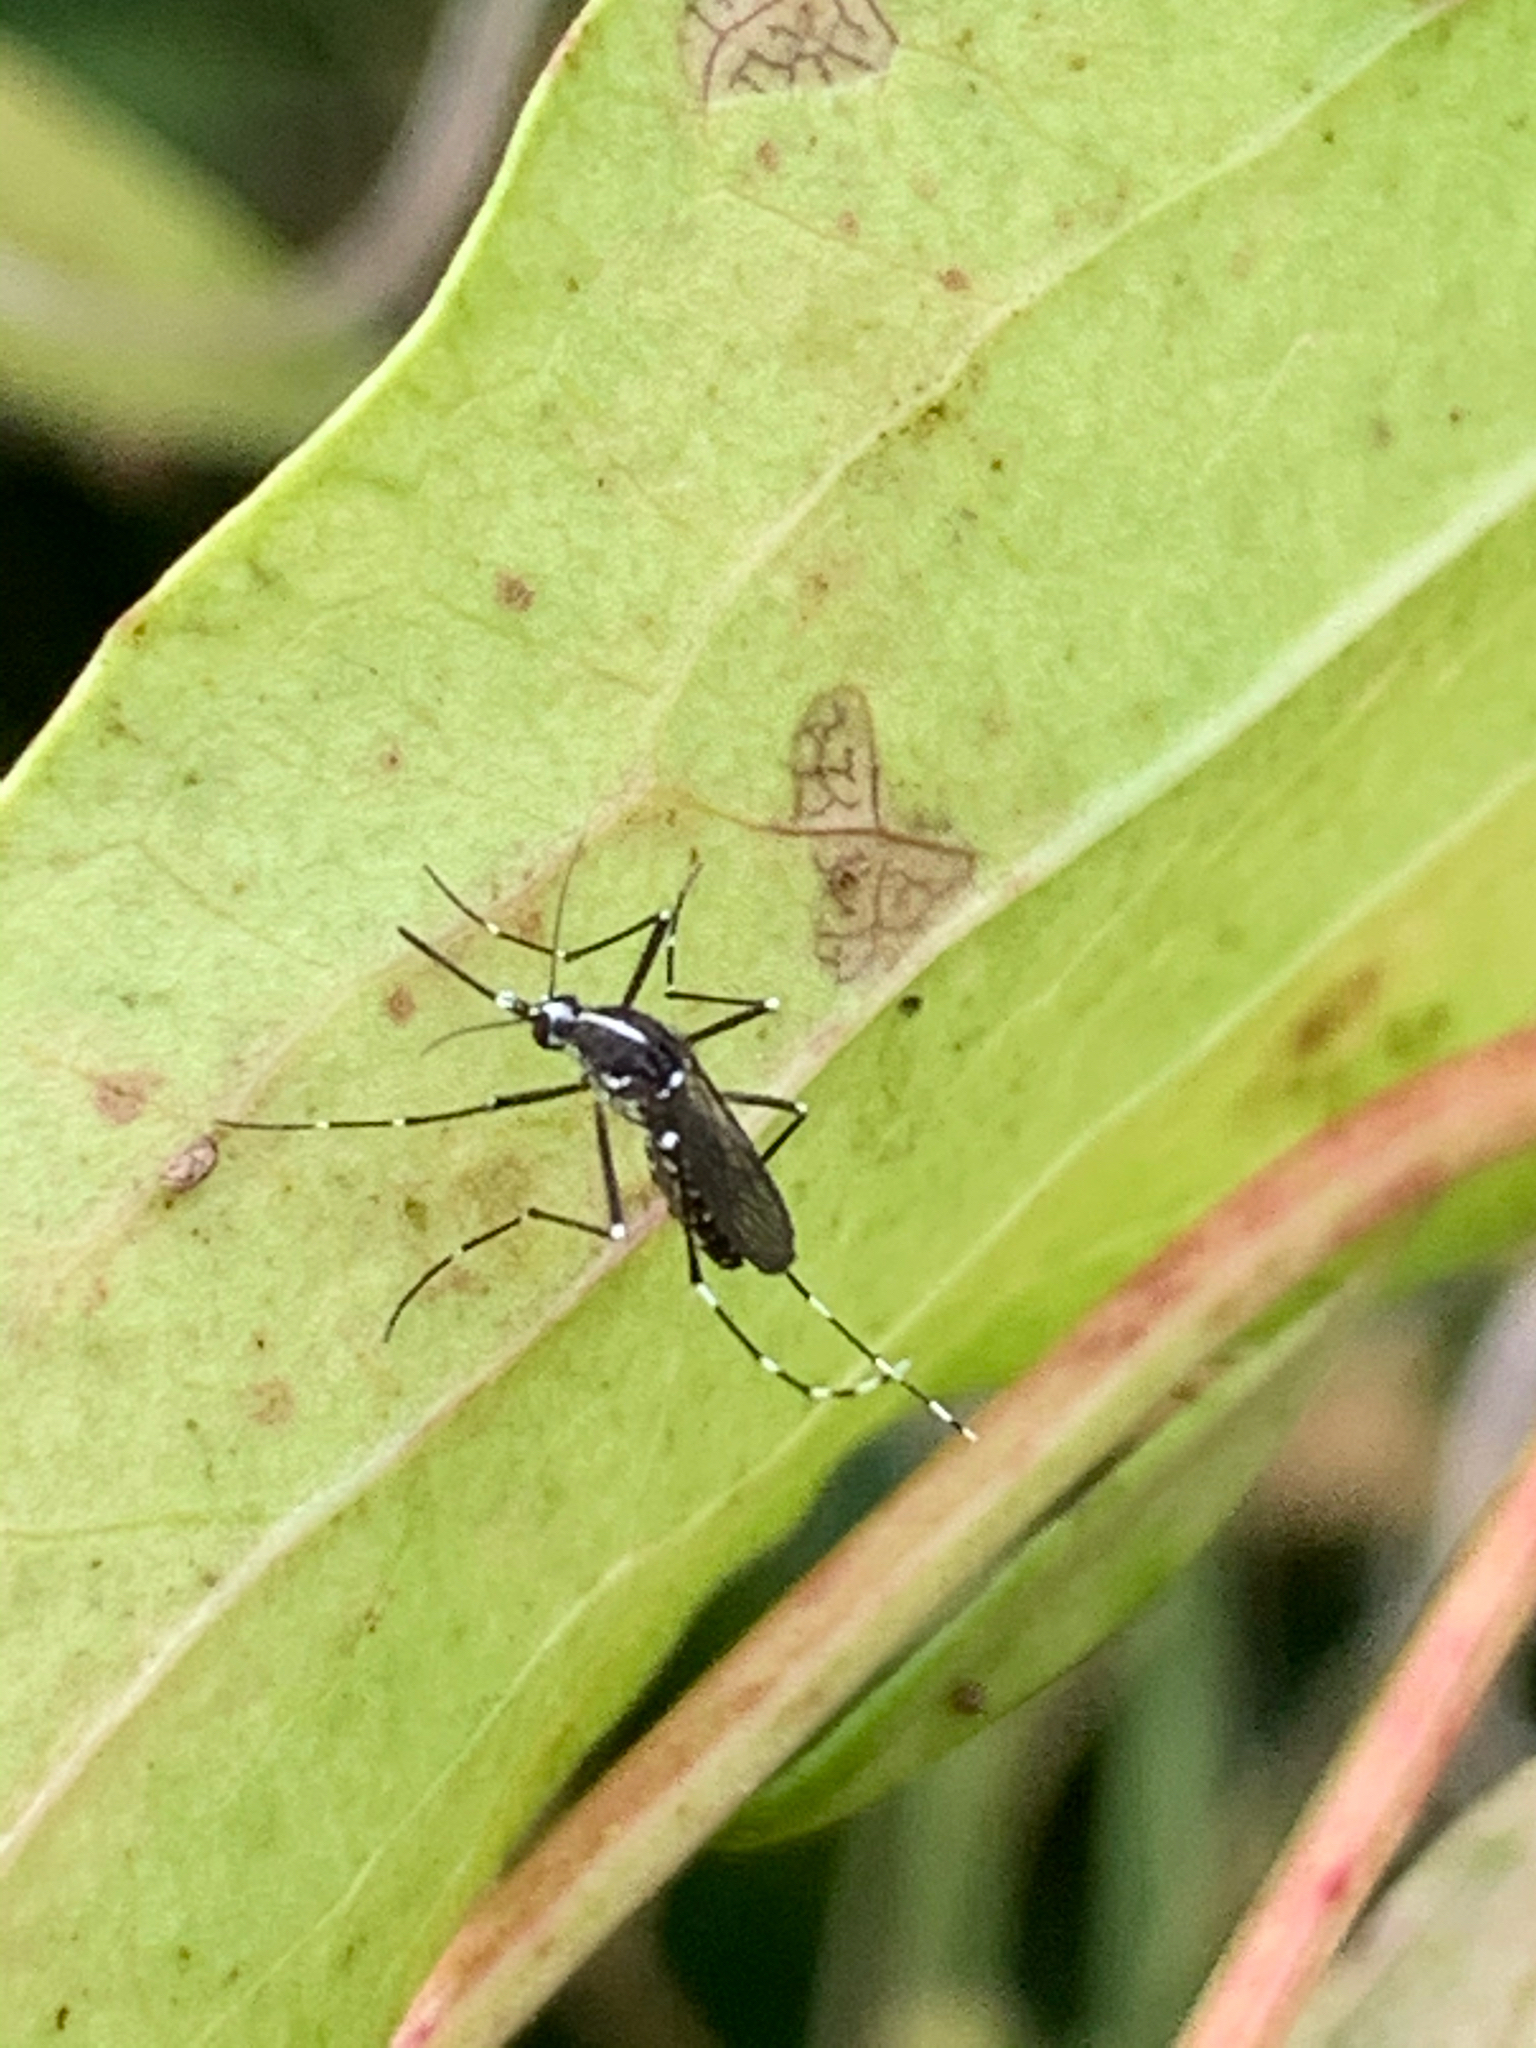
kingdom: Animalia
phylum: Arthropoda
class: Insecta
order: Diptera
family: Culicidae
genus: Aedes
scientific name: Aedes albopictus
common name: Tiger mosquito
